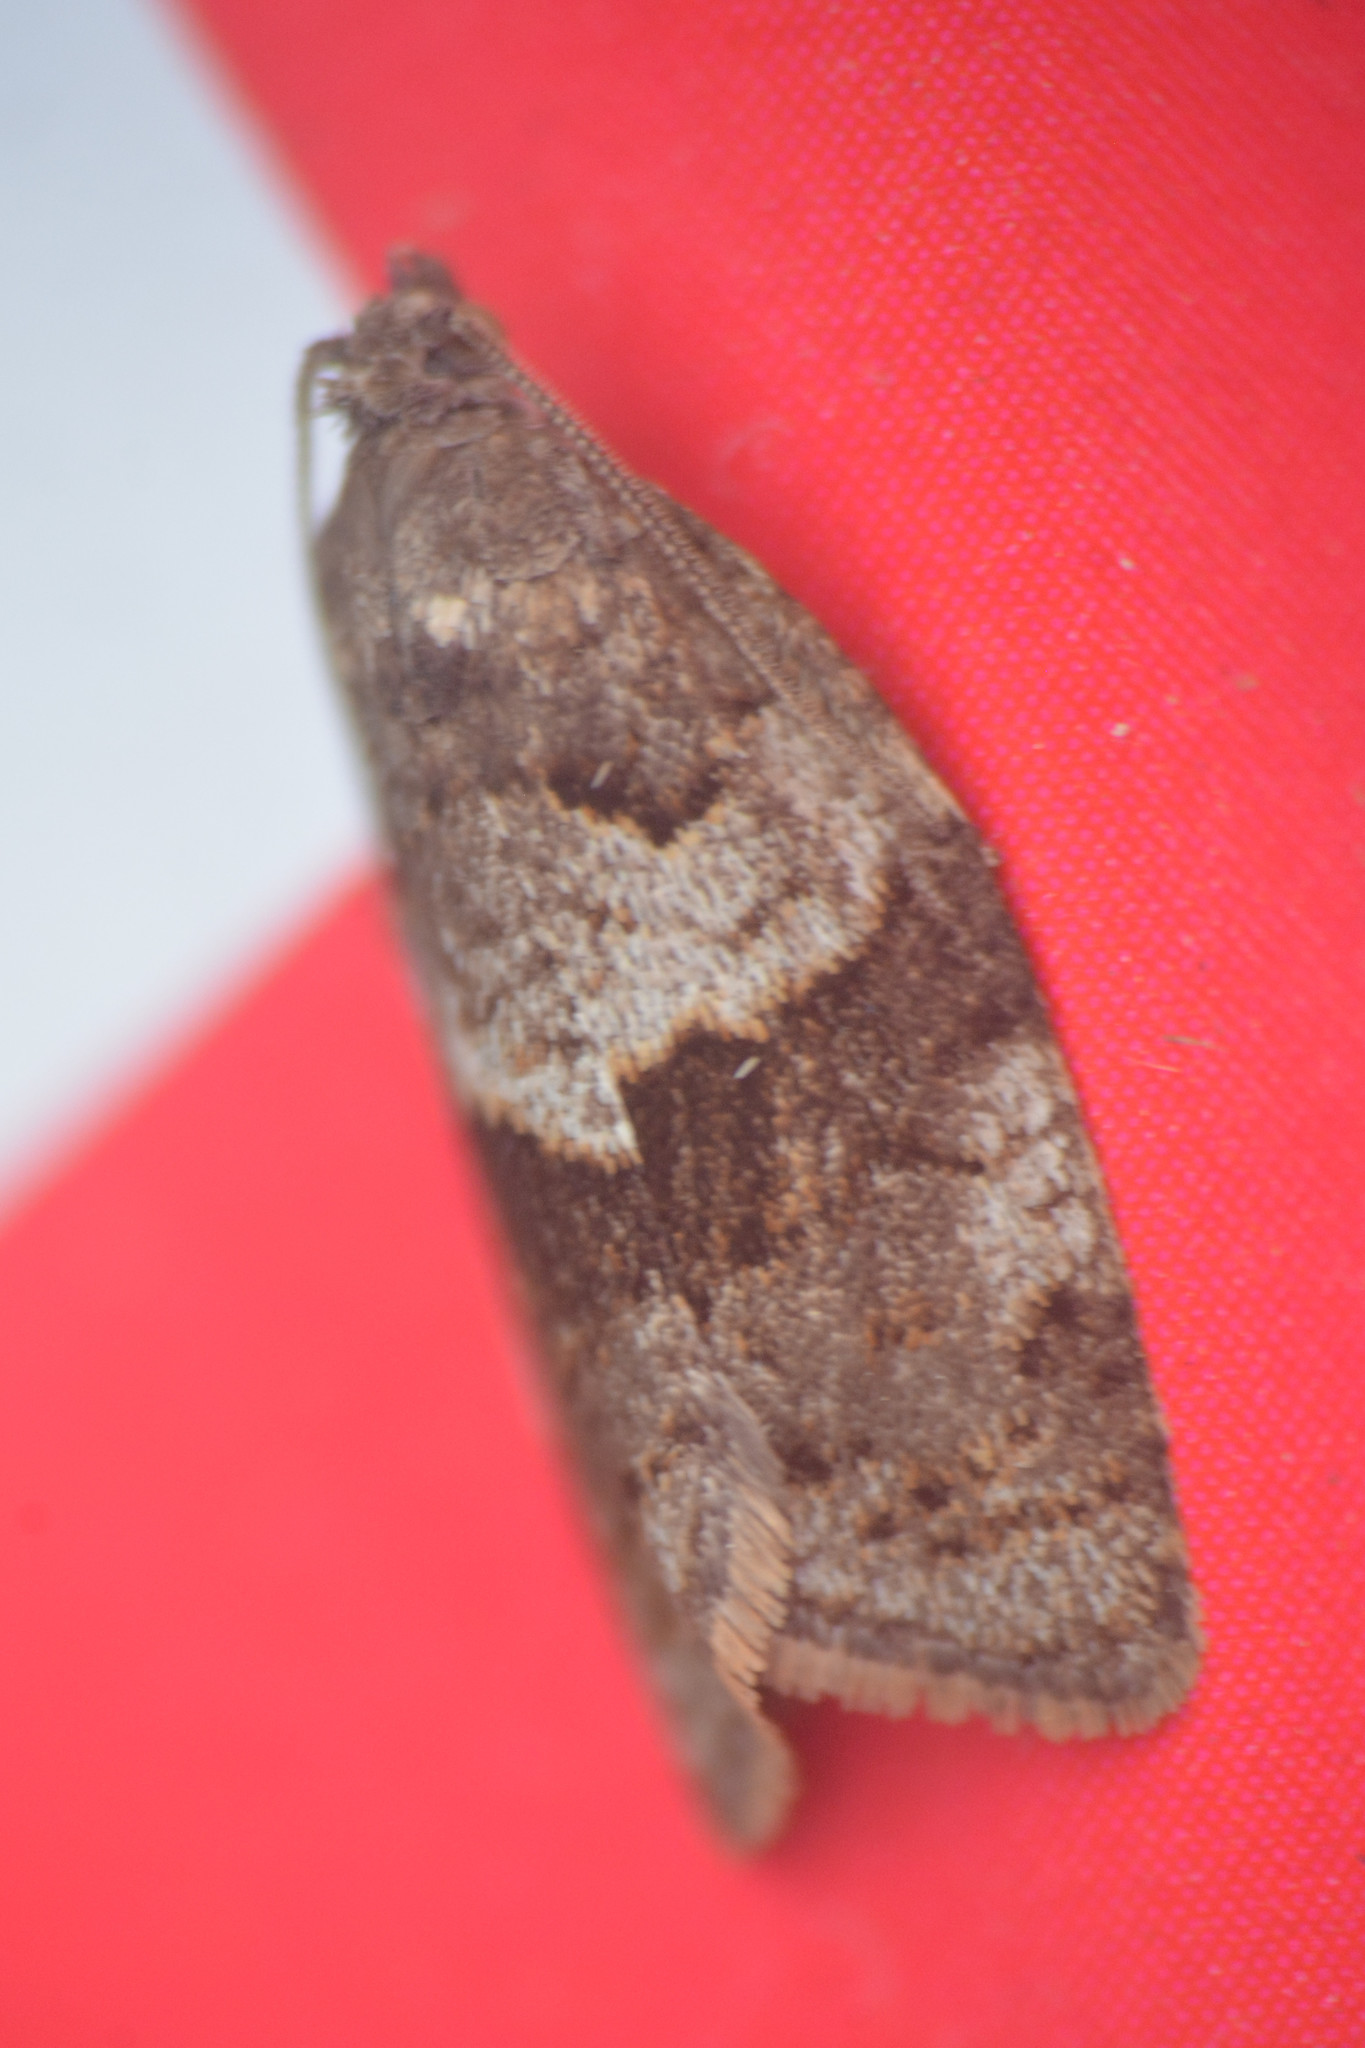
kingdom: Animalia
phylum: Arthropoda
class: Insecta
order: Lepidoptera
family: Tortricidae
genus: Syndemis
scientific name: Syndemis musculana
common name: Dark-barred twist
